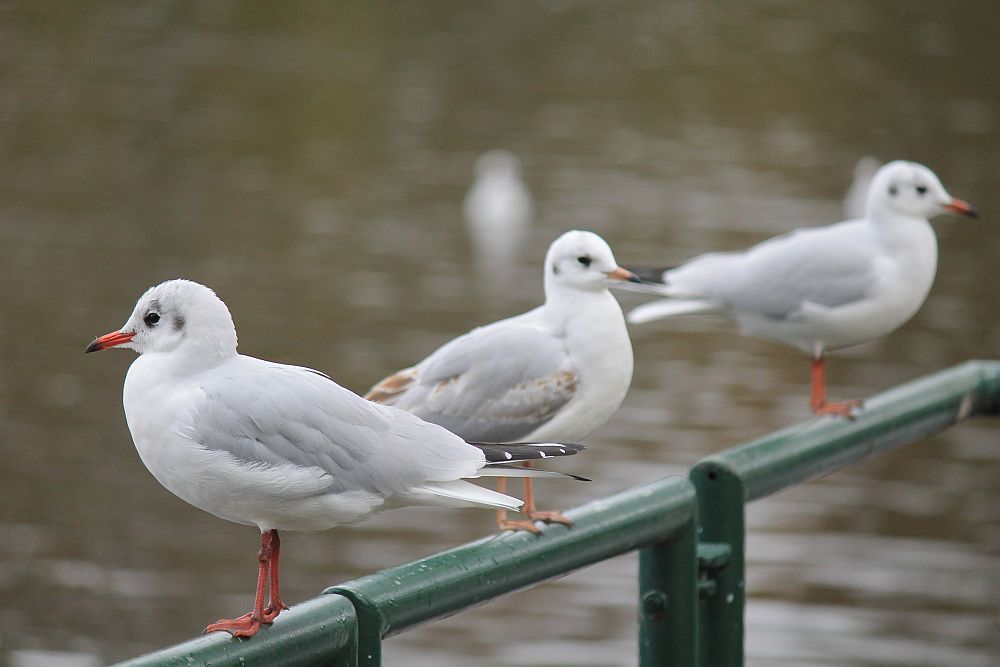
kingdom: Animalia
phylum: Chordata
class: Aves
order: Charadriiformes
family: Laridae
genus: Chroicocephalus
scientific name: Chroicocephalus ridibundus
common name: Black-headed gull
